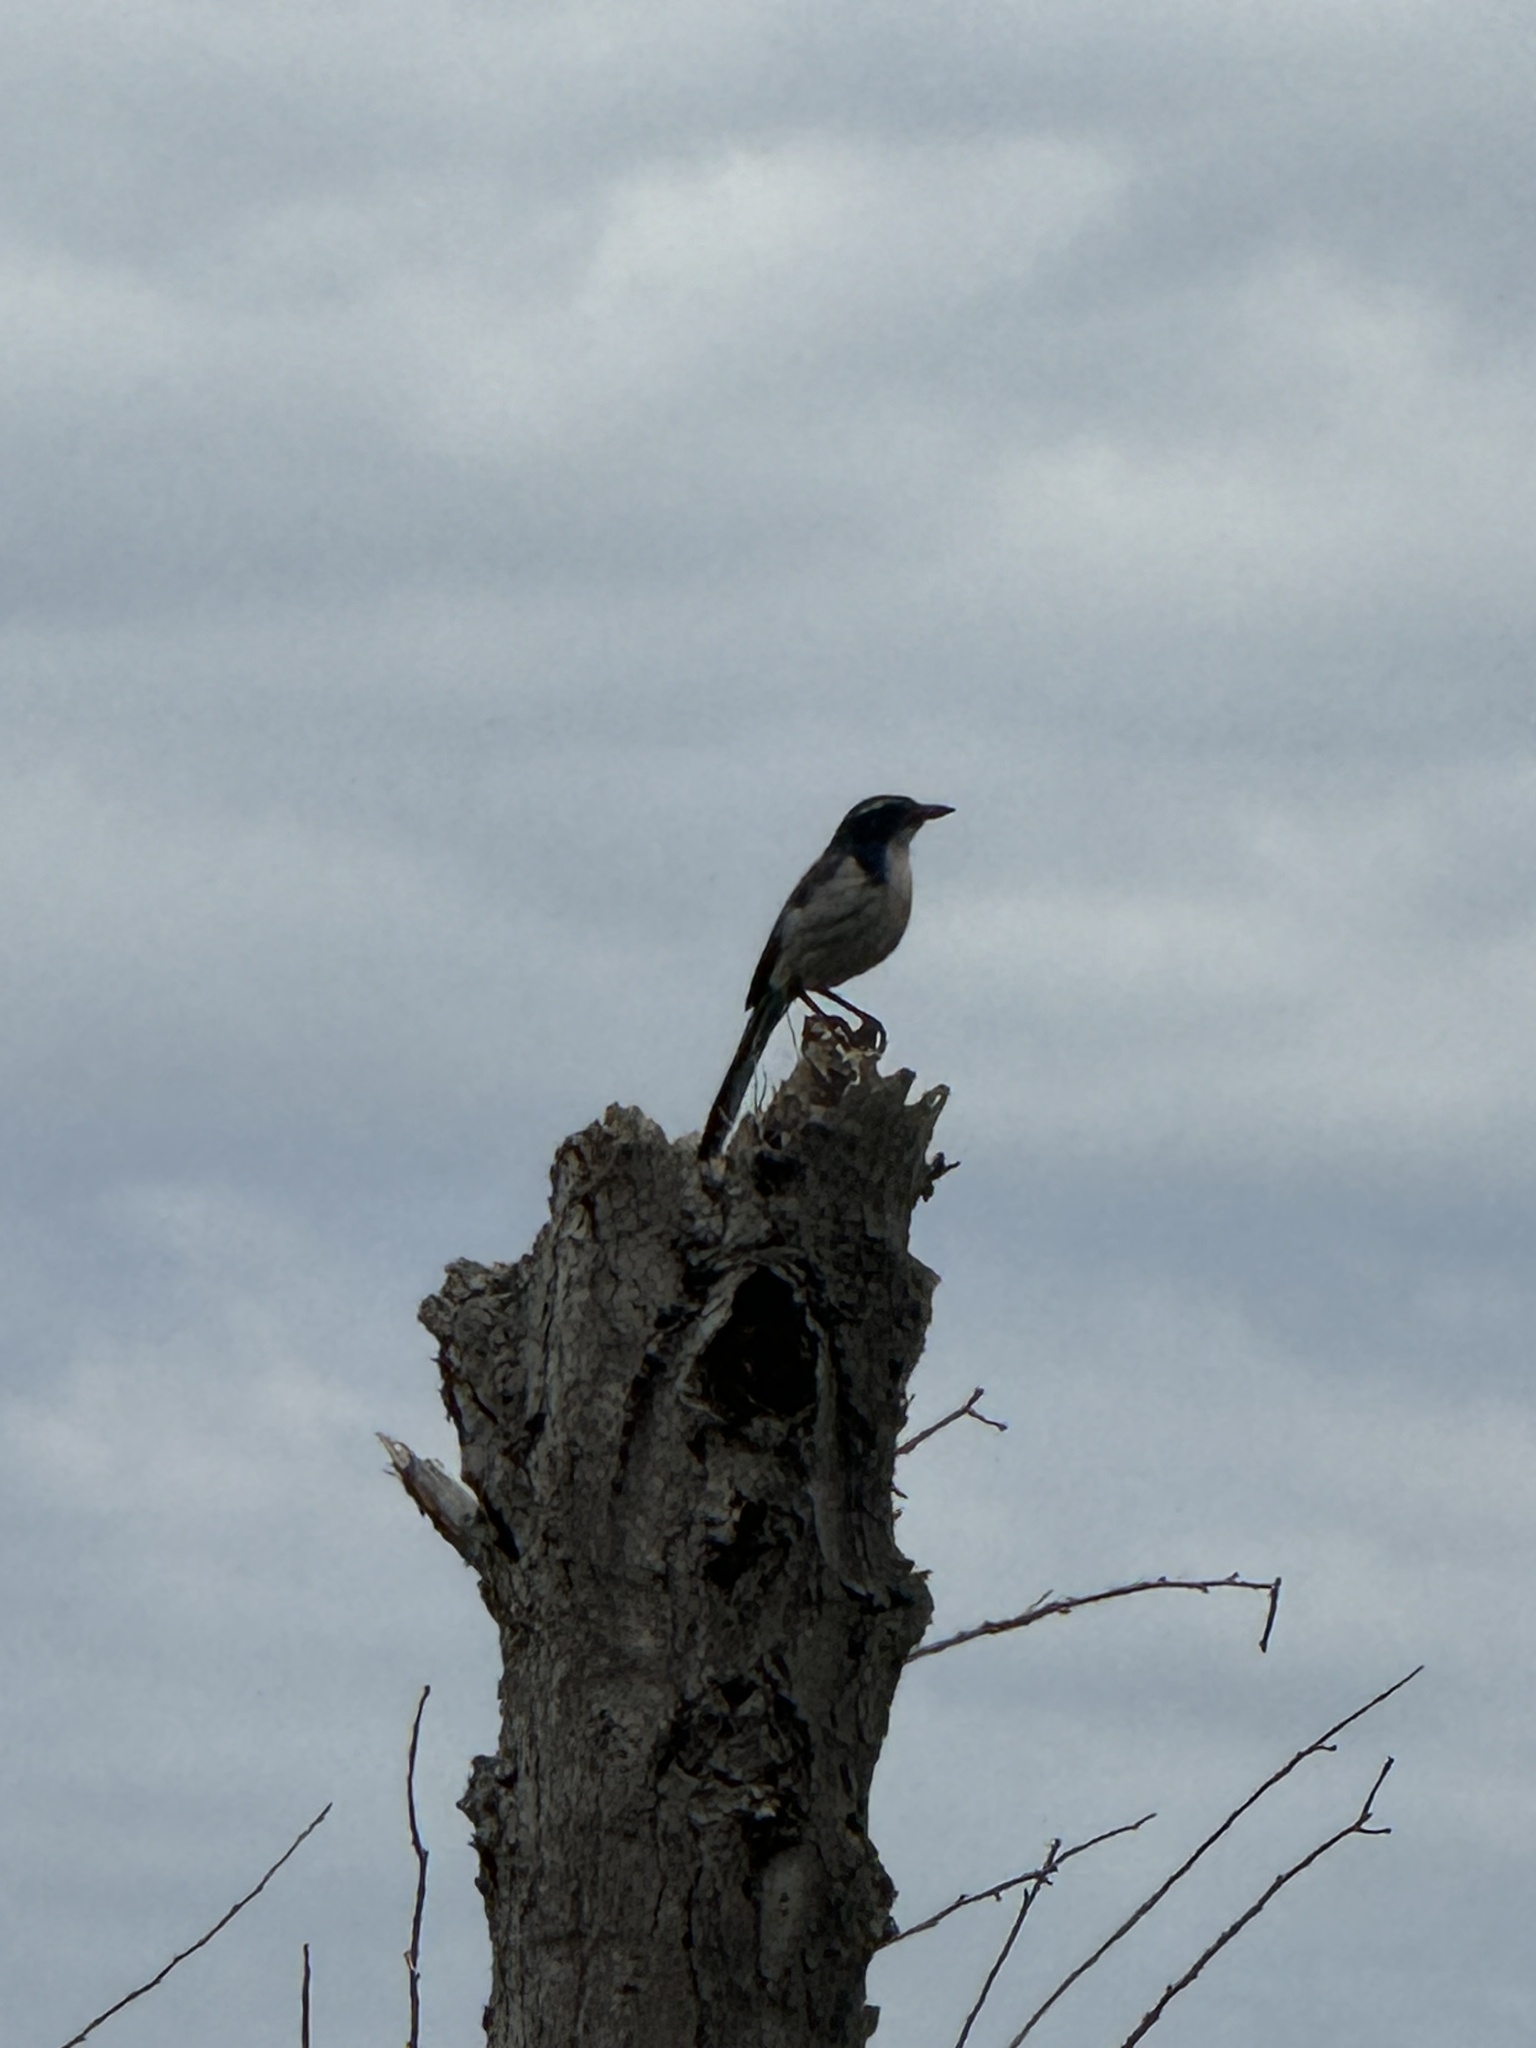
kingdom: Animalia
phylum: Chordata
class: Aves
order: Passeriformes
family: Corvidae
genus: Aphelocoma
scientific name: Aphelocoma californica
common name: California scrub-jay
